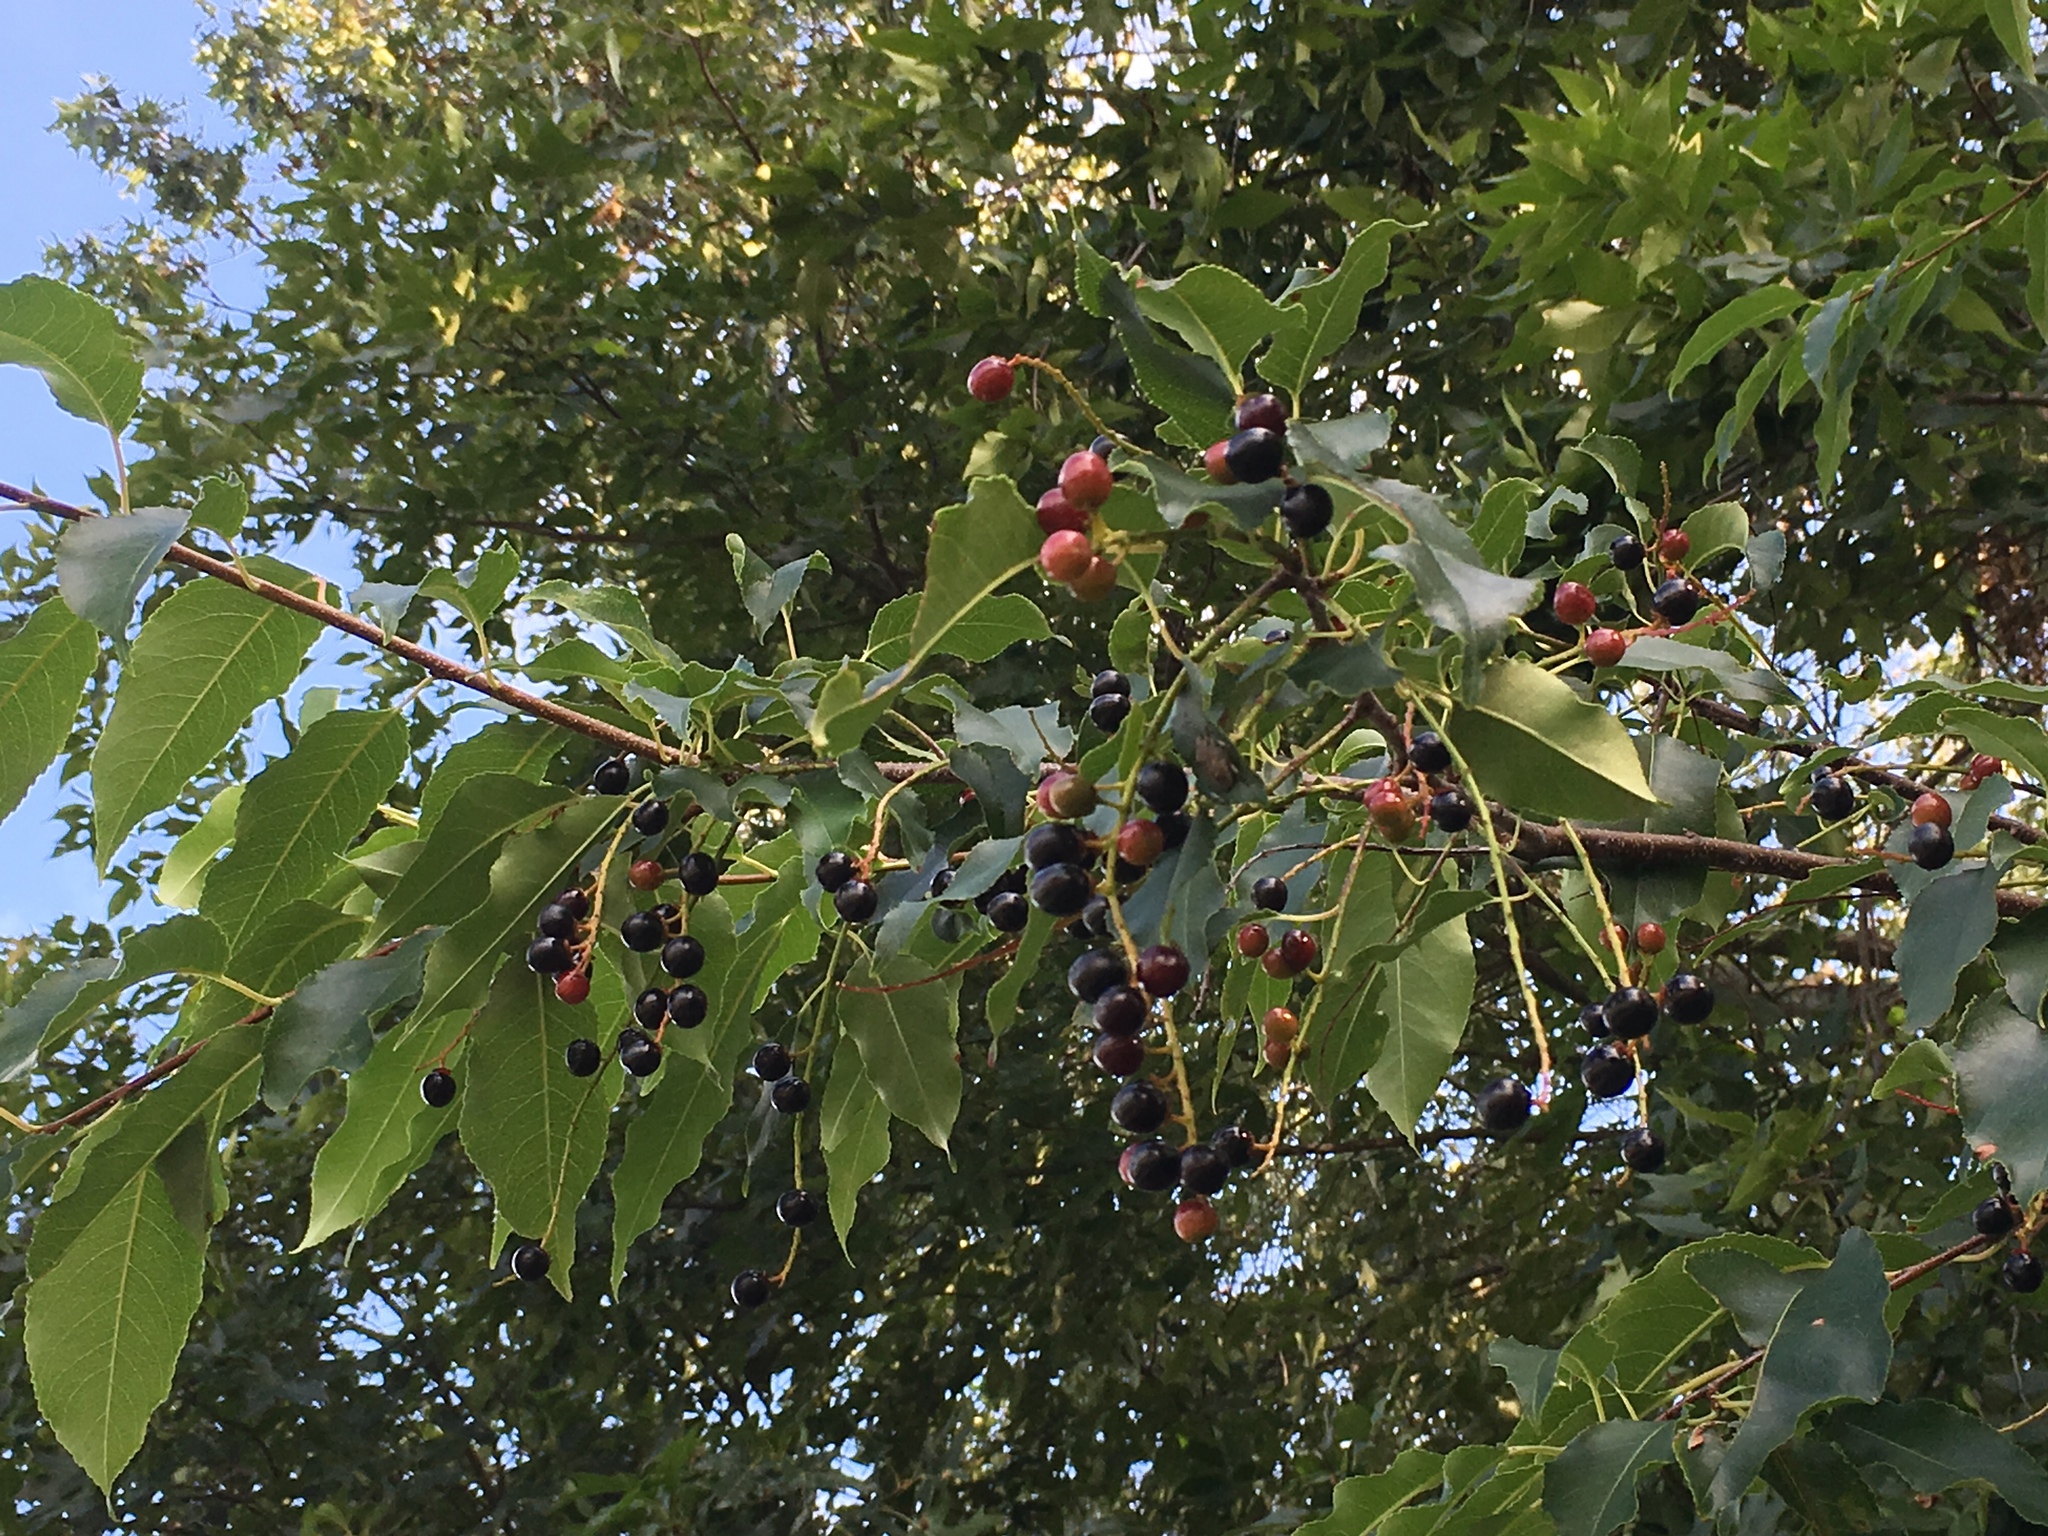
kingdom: Plantae
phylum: Tracheophyta
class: Magnoliopsida
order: Rosales
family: Rosaceae
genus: Prunus
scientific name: Prunus serotina
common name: Black cherry
